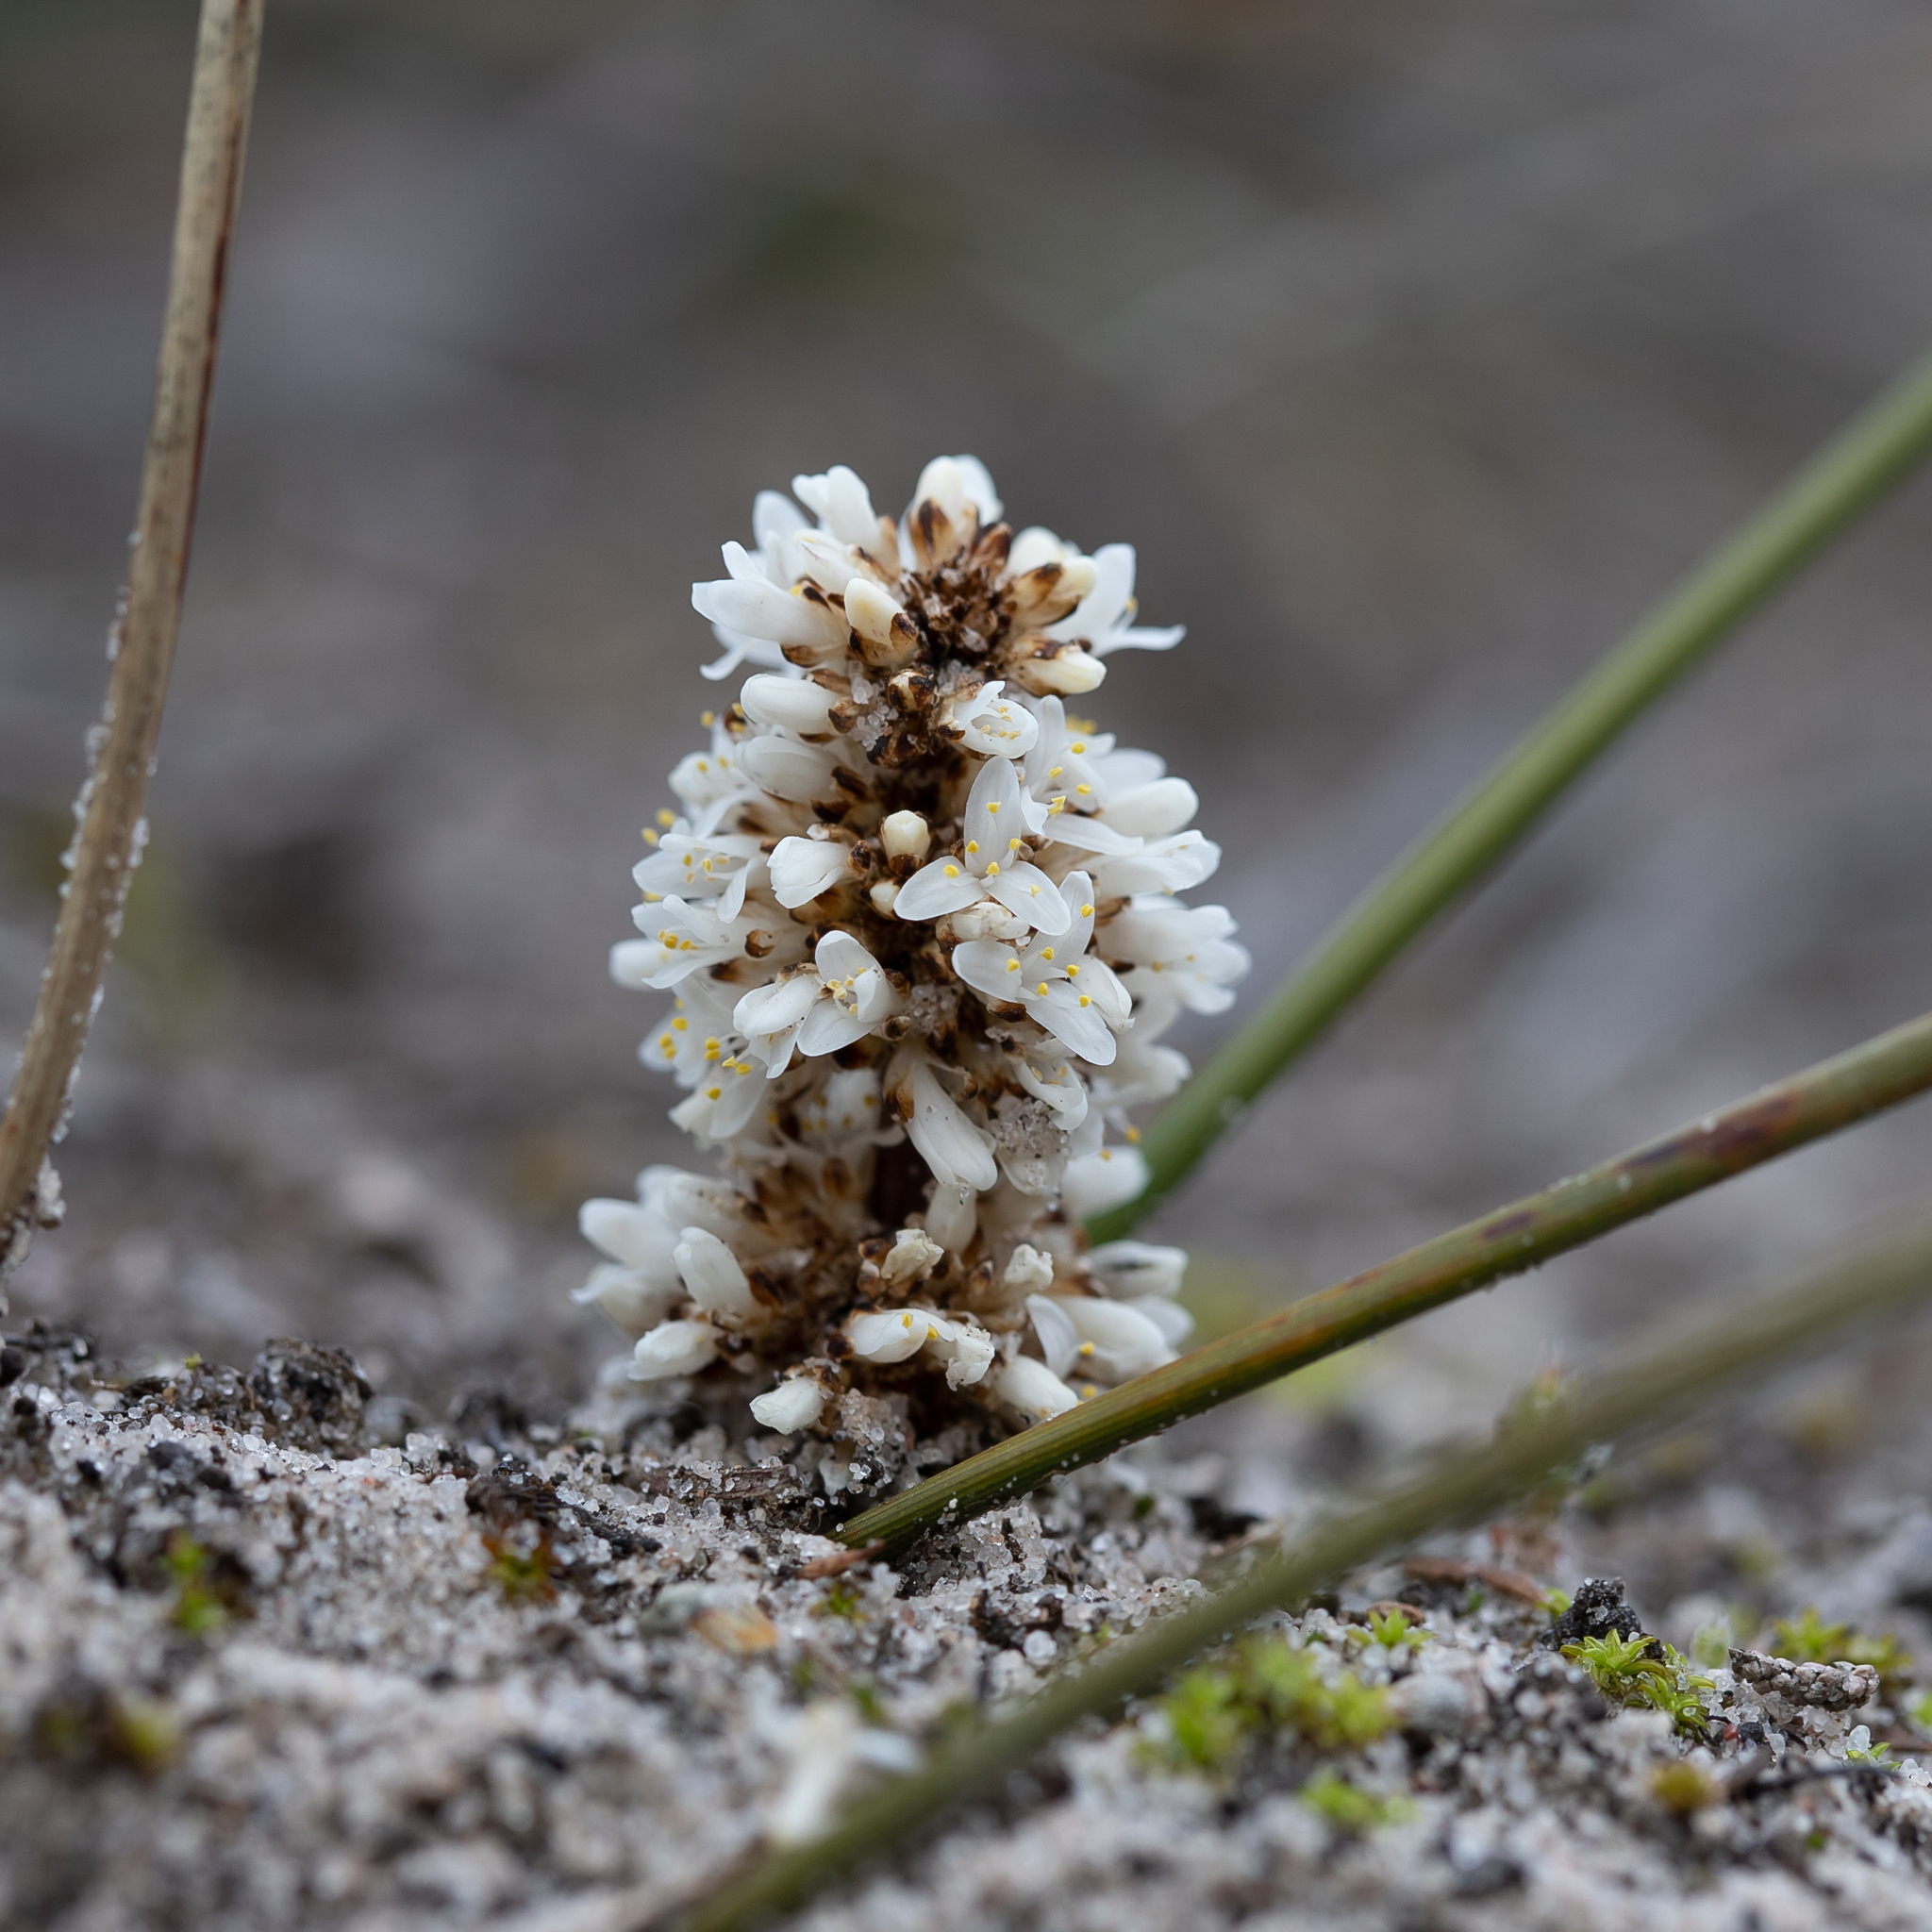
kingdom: Plantae
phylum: Tracheophyta
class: Liliopsida
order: Asparagales
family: Asparagaceae
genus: Lomandra
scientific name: Lomandra juncea
